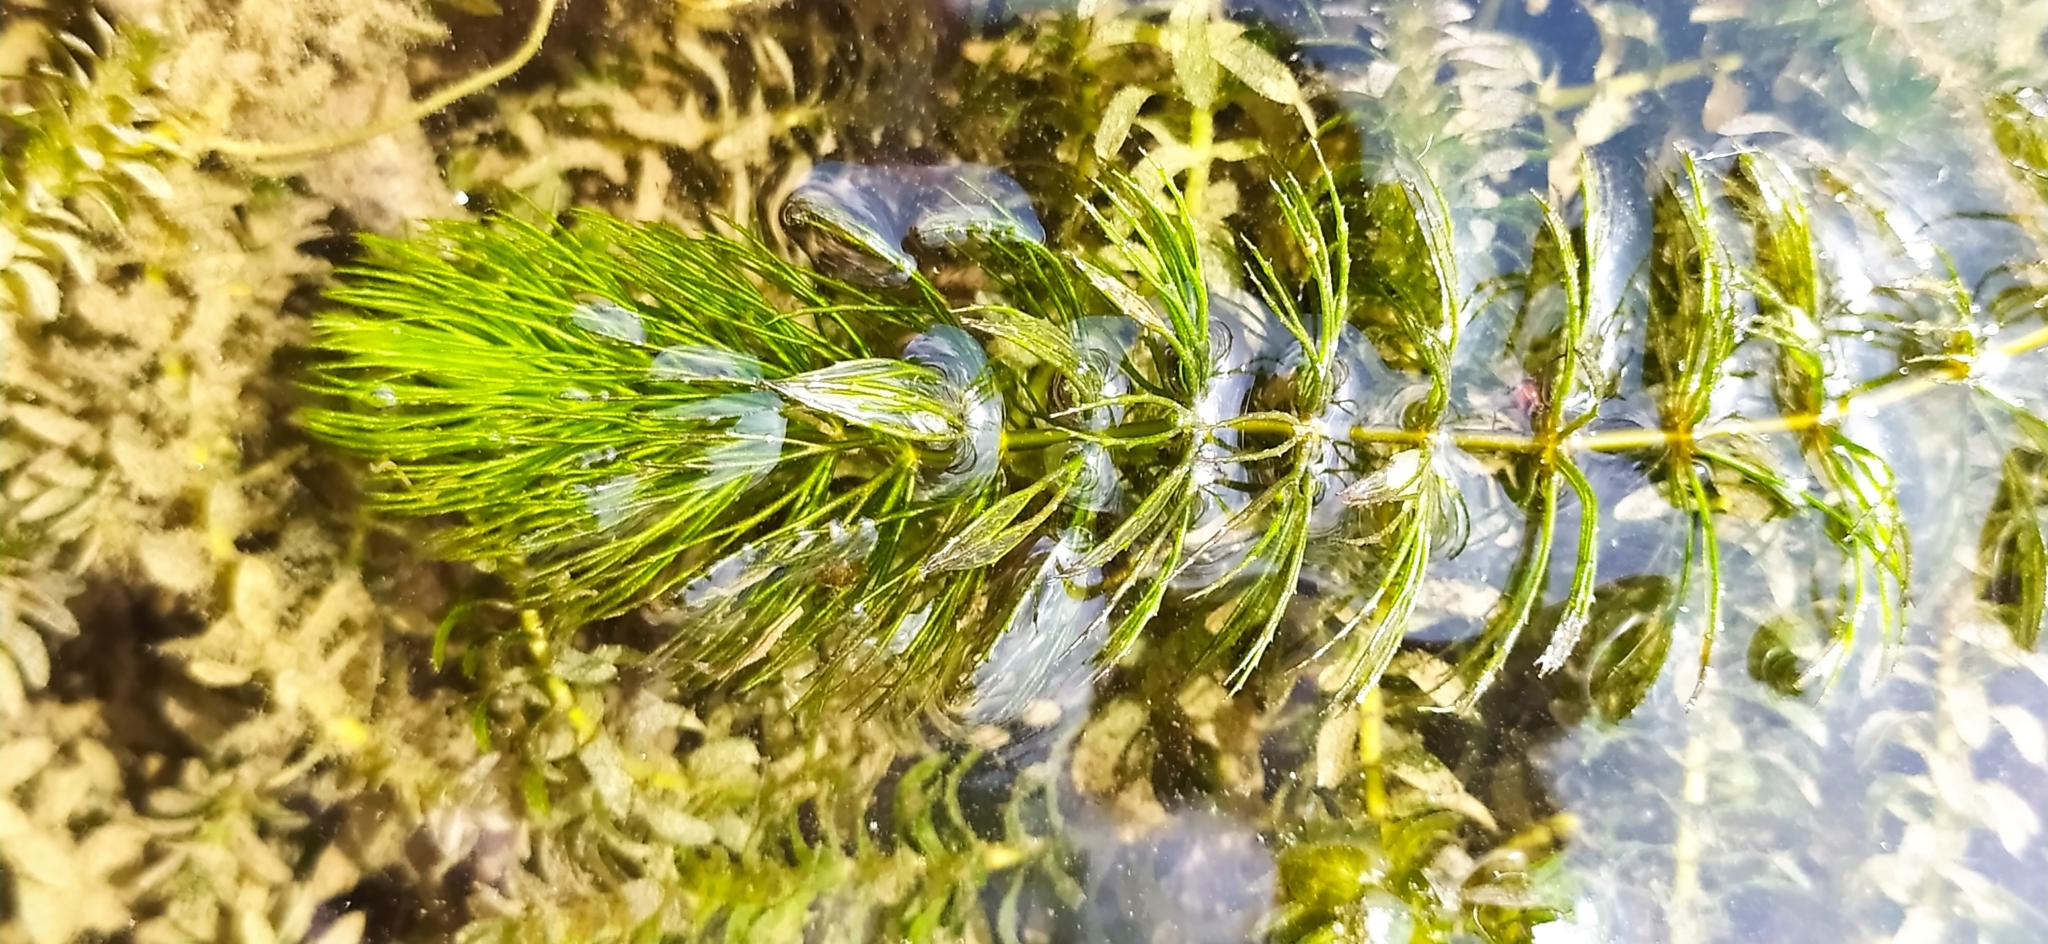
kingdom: Plantae
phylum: Tracheophyta
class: Magnoliopsida
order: Ceratophyllales
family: Ceratophyllaceae
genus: Ceratophyllum
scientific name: Ceratophyllum demersum
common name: Rigid hornwort
